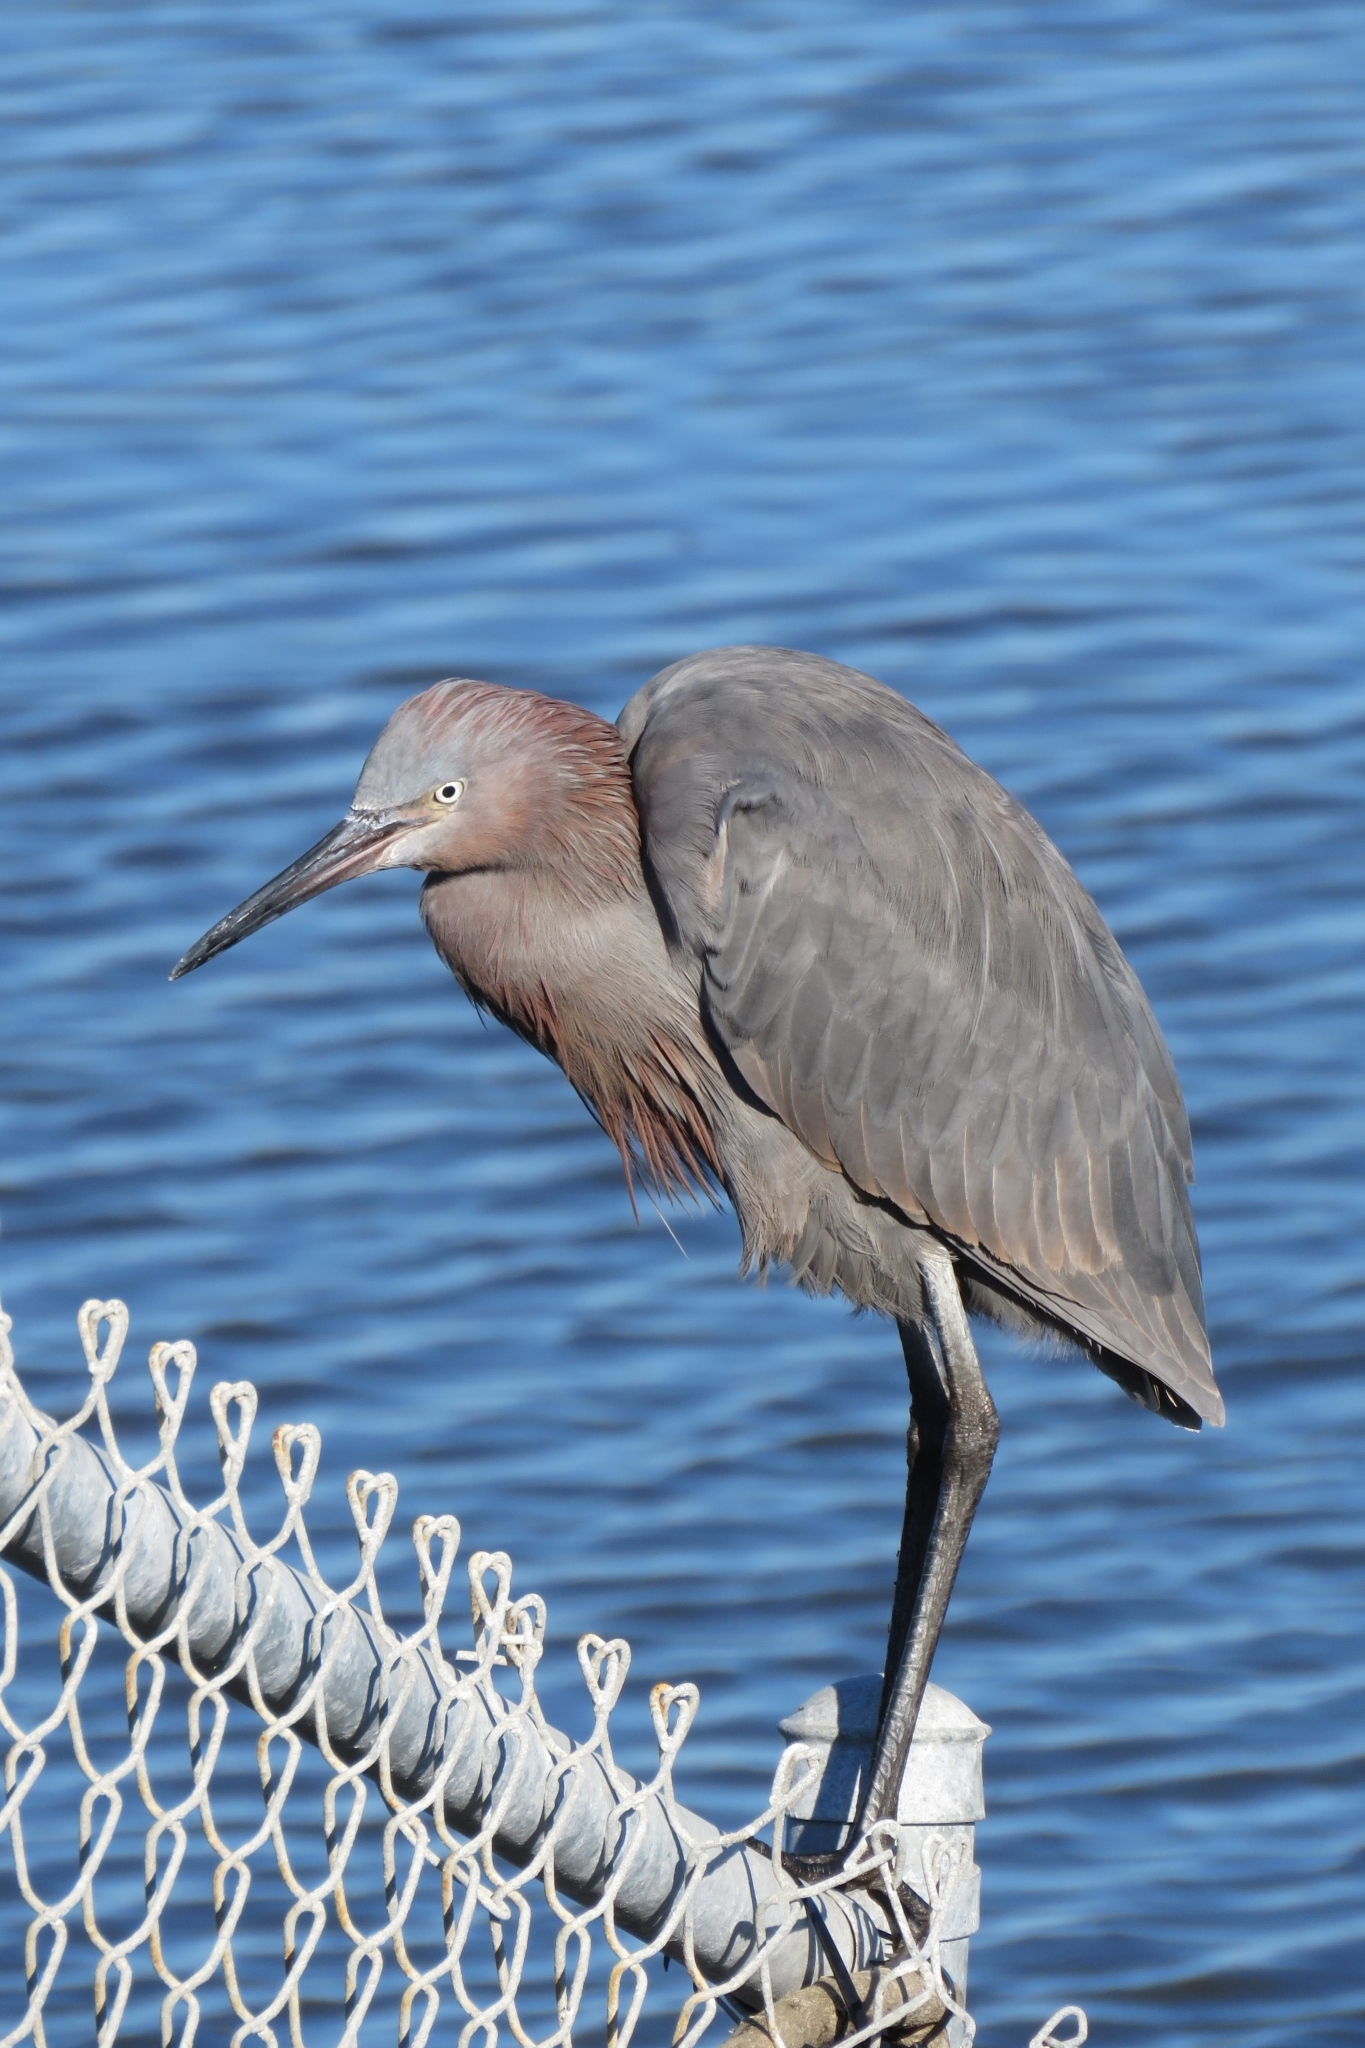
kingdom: Animalia
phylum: Chordata
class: Aves
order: Pelecaniformes
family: Ardeidae
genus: Egretta
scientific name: Egretta rufescens
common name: Reddish egret
